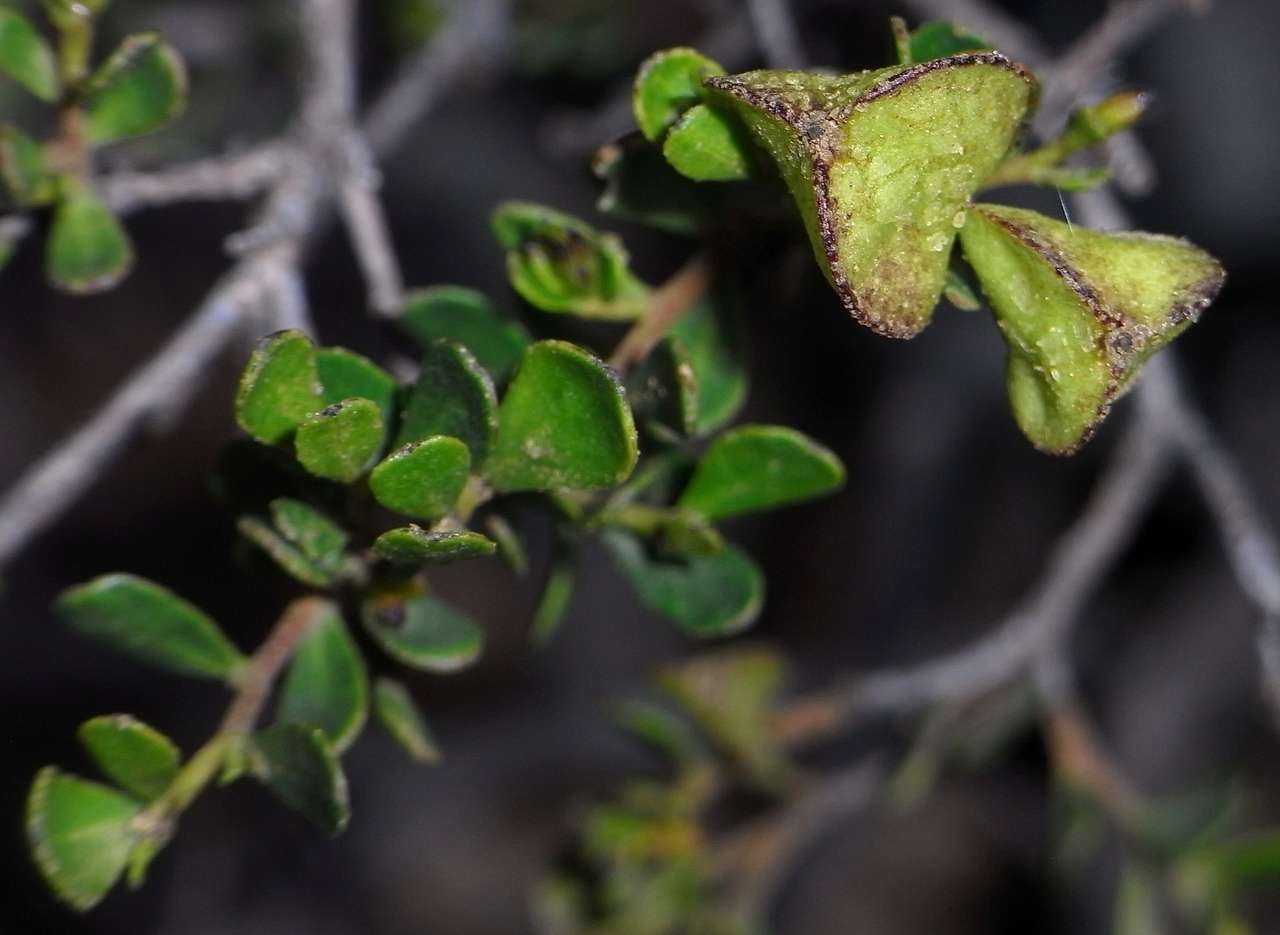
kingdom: Plantae
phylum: Tracheophyta
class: Magnoliopsida
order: Sapindales
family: Sapindaceae
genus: Dodonaea
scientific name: Dodonaea bursariifolia
